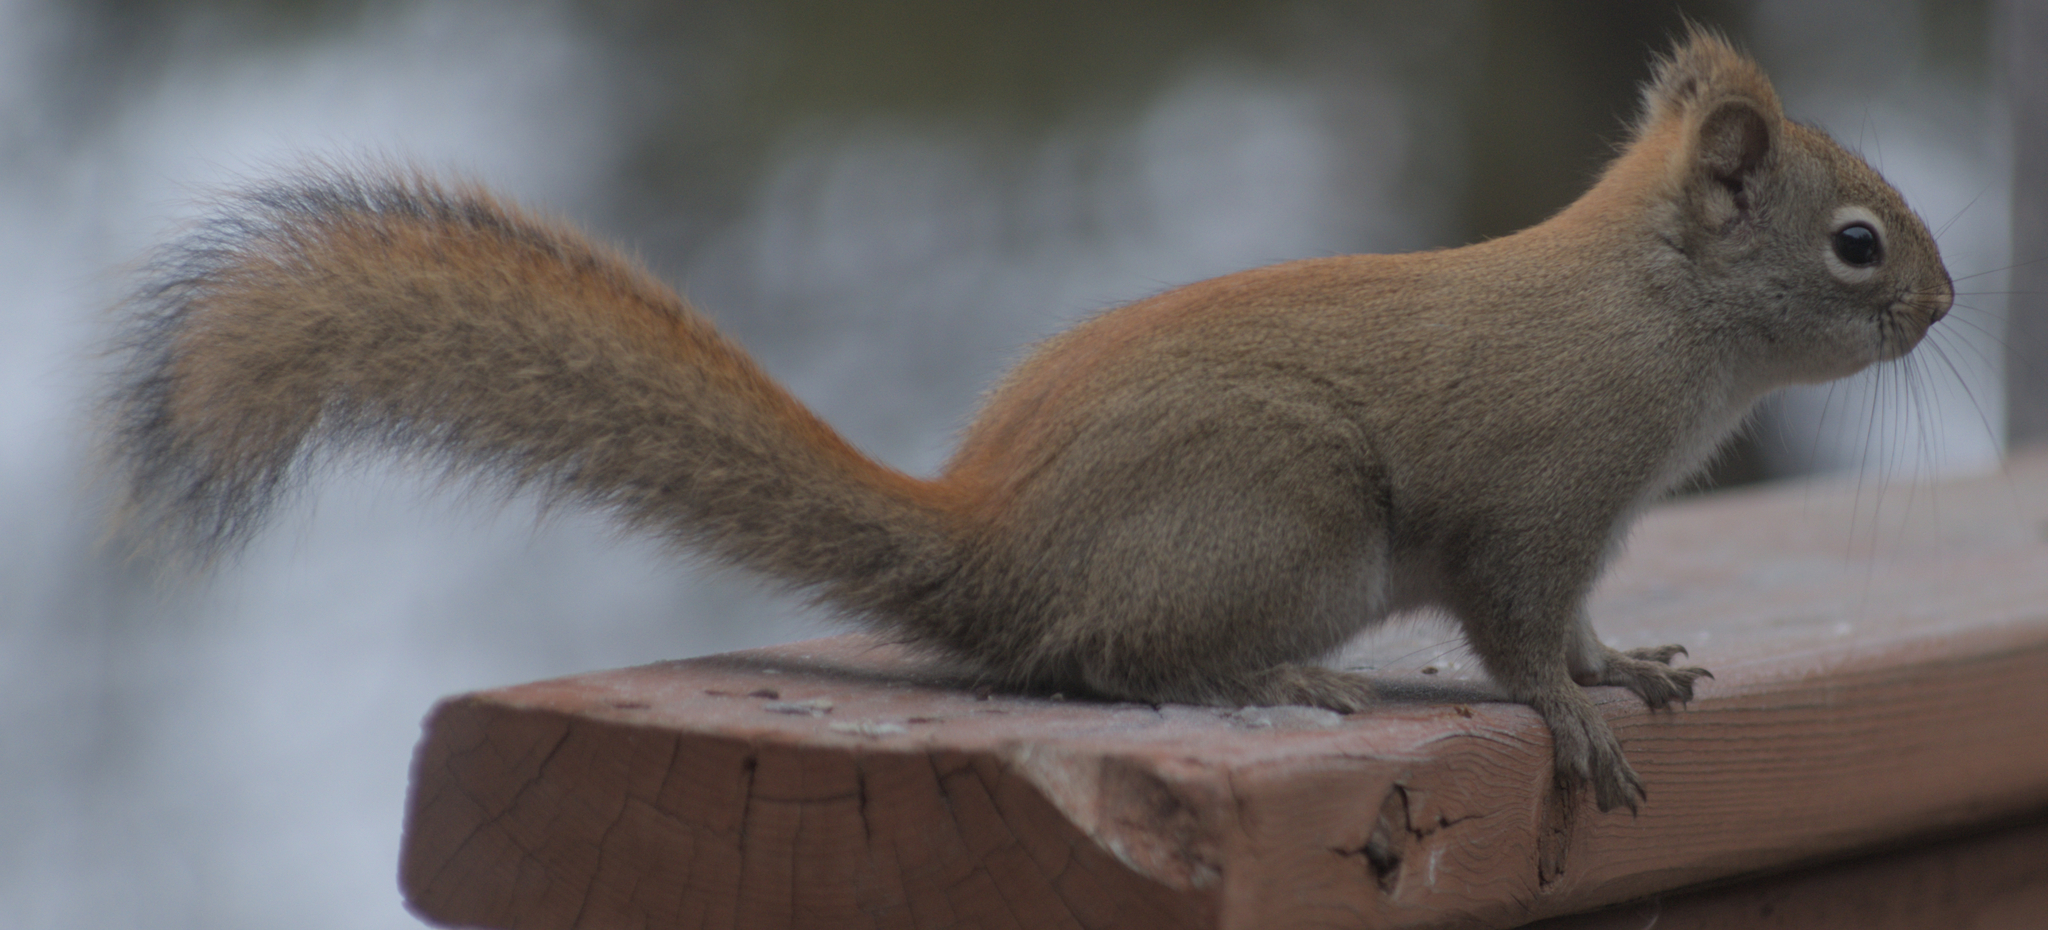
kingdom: Animalia
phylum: Chordata
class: Mammalia
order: Rodentia
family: Sciuridae
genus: Tamiasciurus
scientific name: Tamiasciurus hudsonicus
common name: Red squirrel
